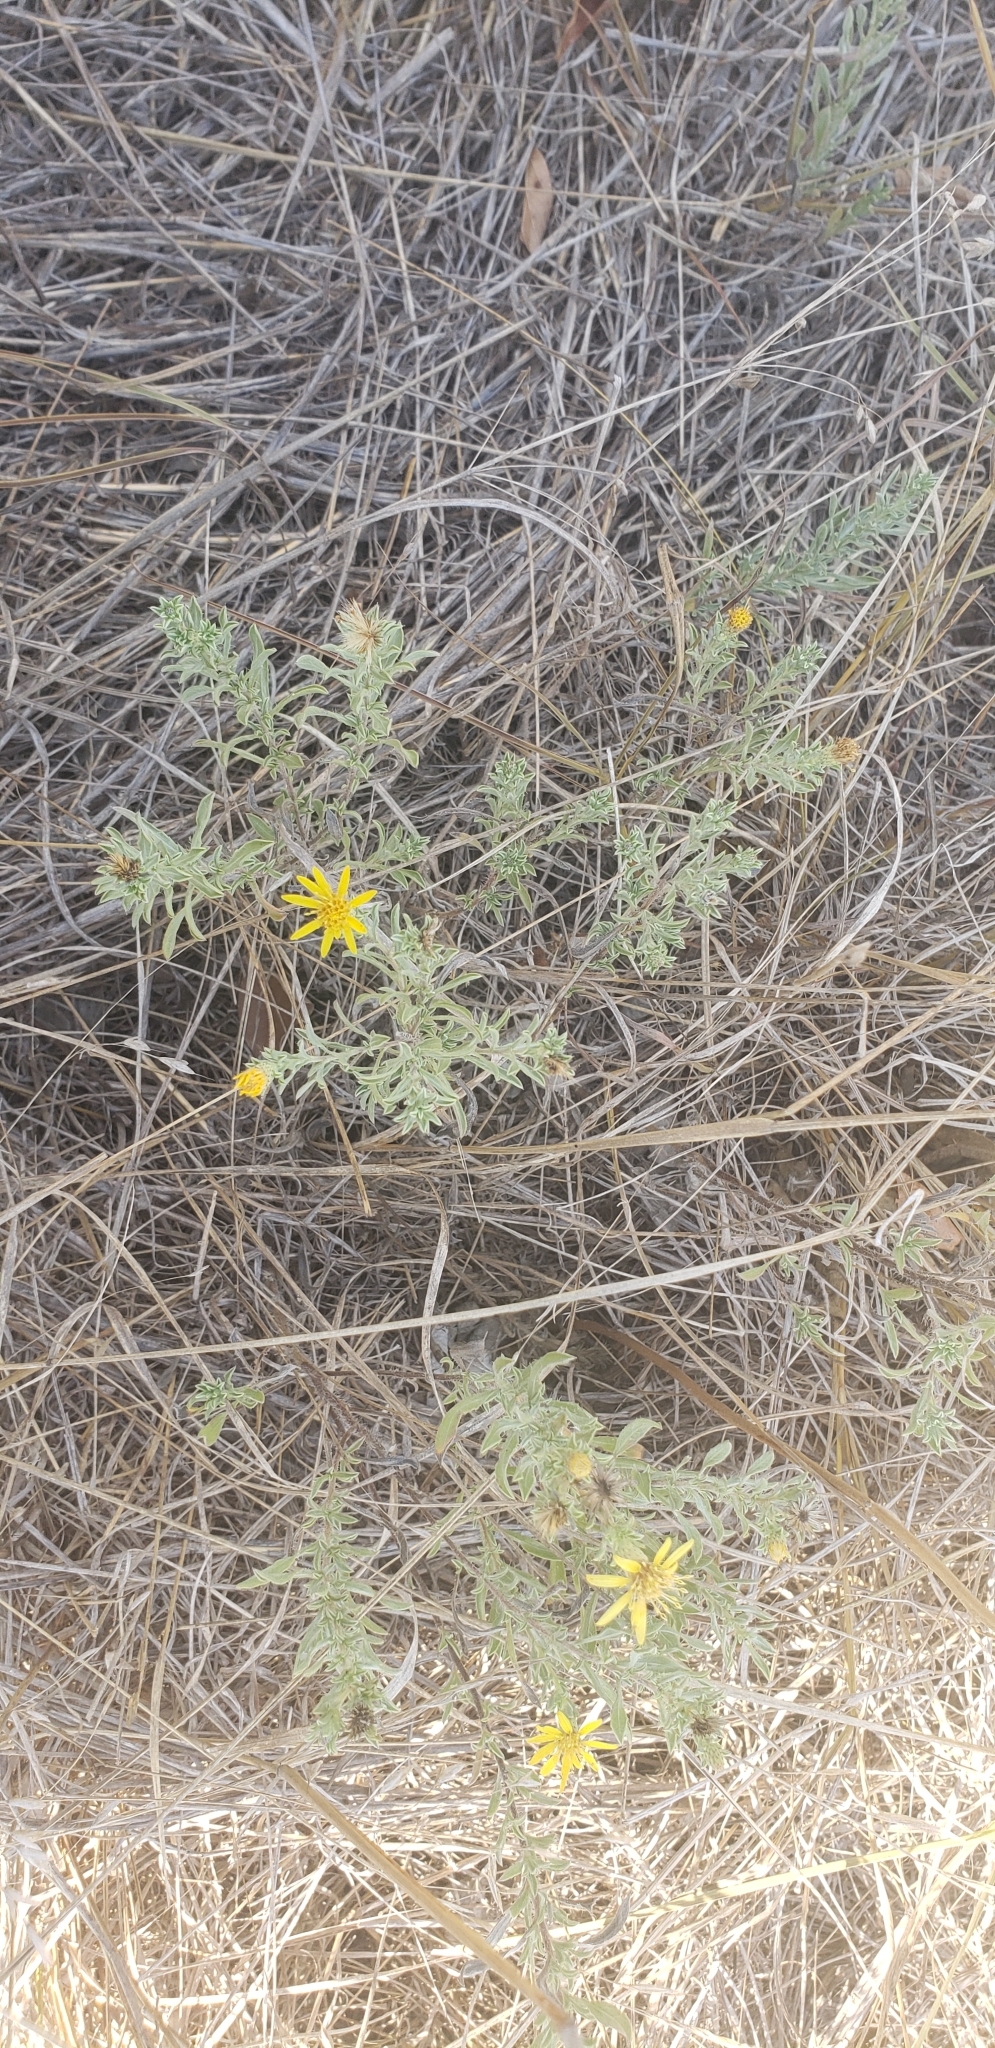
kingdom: Plantae
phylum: Tracheophyta
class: Magnoliopsida
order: Asterales
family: Asteraceae
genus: Heterotheca
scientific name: Heterotheca canescens
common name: Hoary golden-aster
